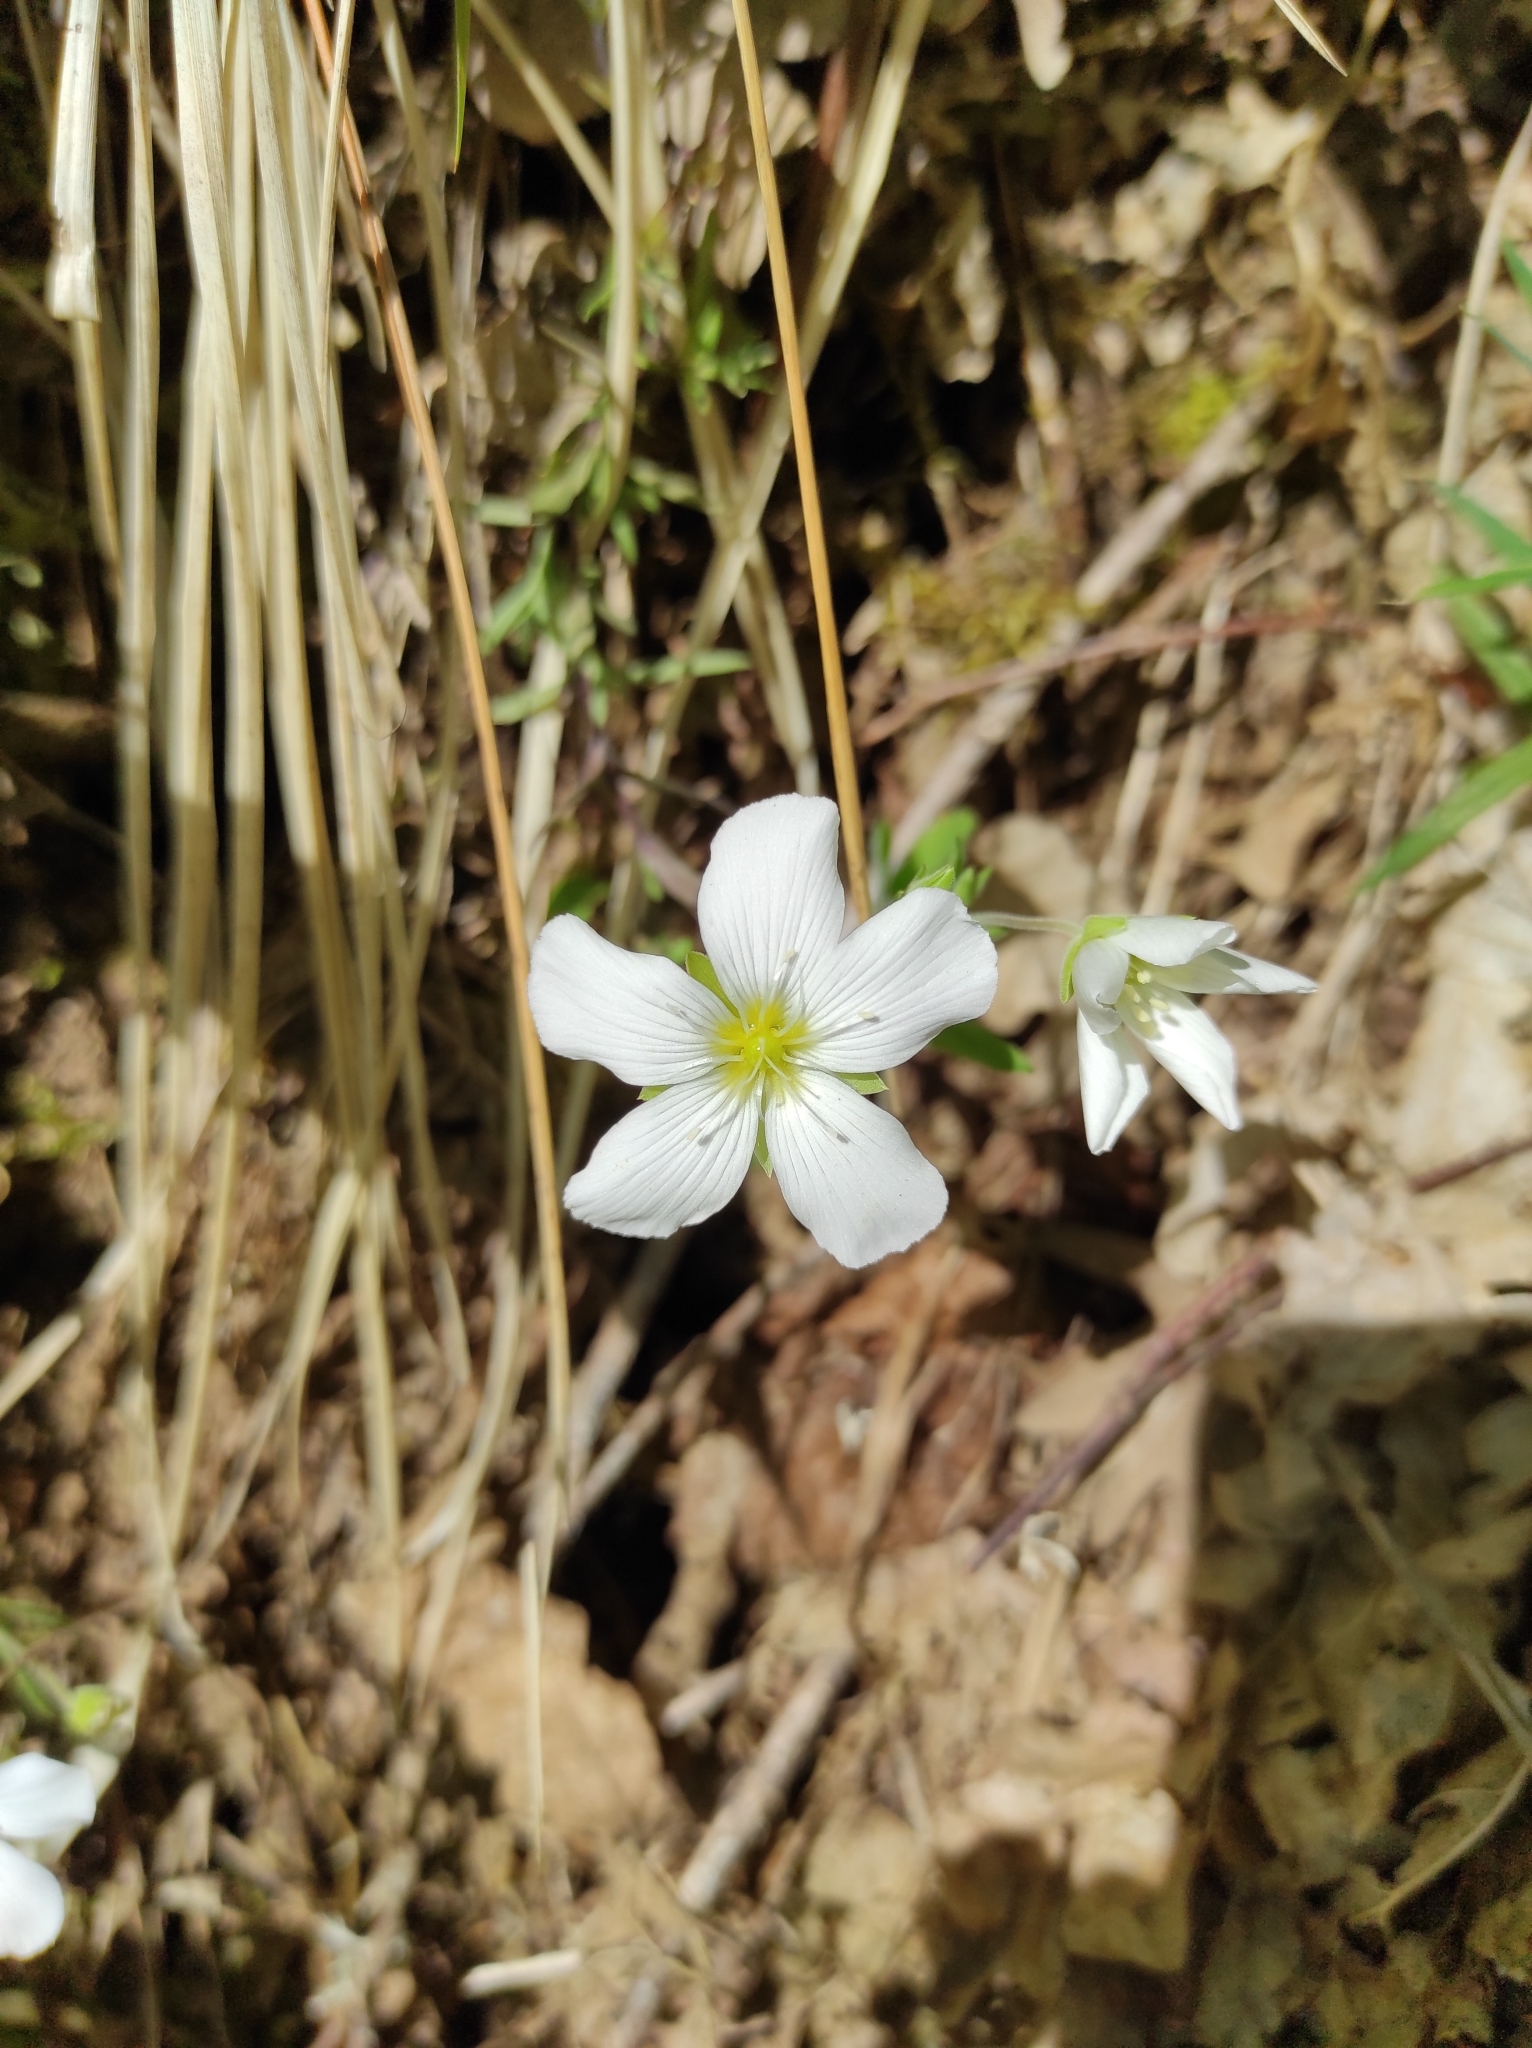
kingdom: Plantae
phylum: Tracheophyta
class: Magnoliopsida
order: Caryophyllales
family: Caryophyllaceae
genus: Arenaria
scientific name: Arenaria montana
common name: Mountain sandwort
